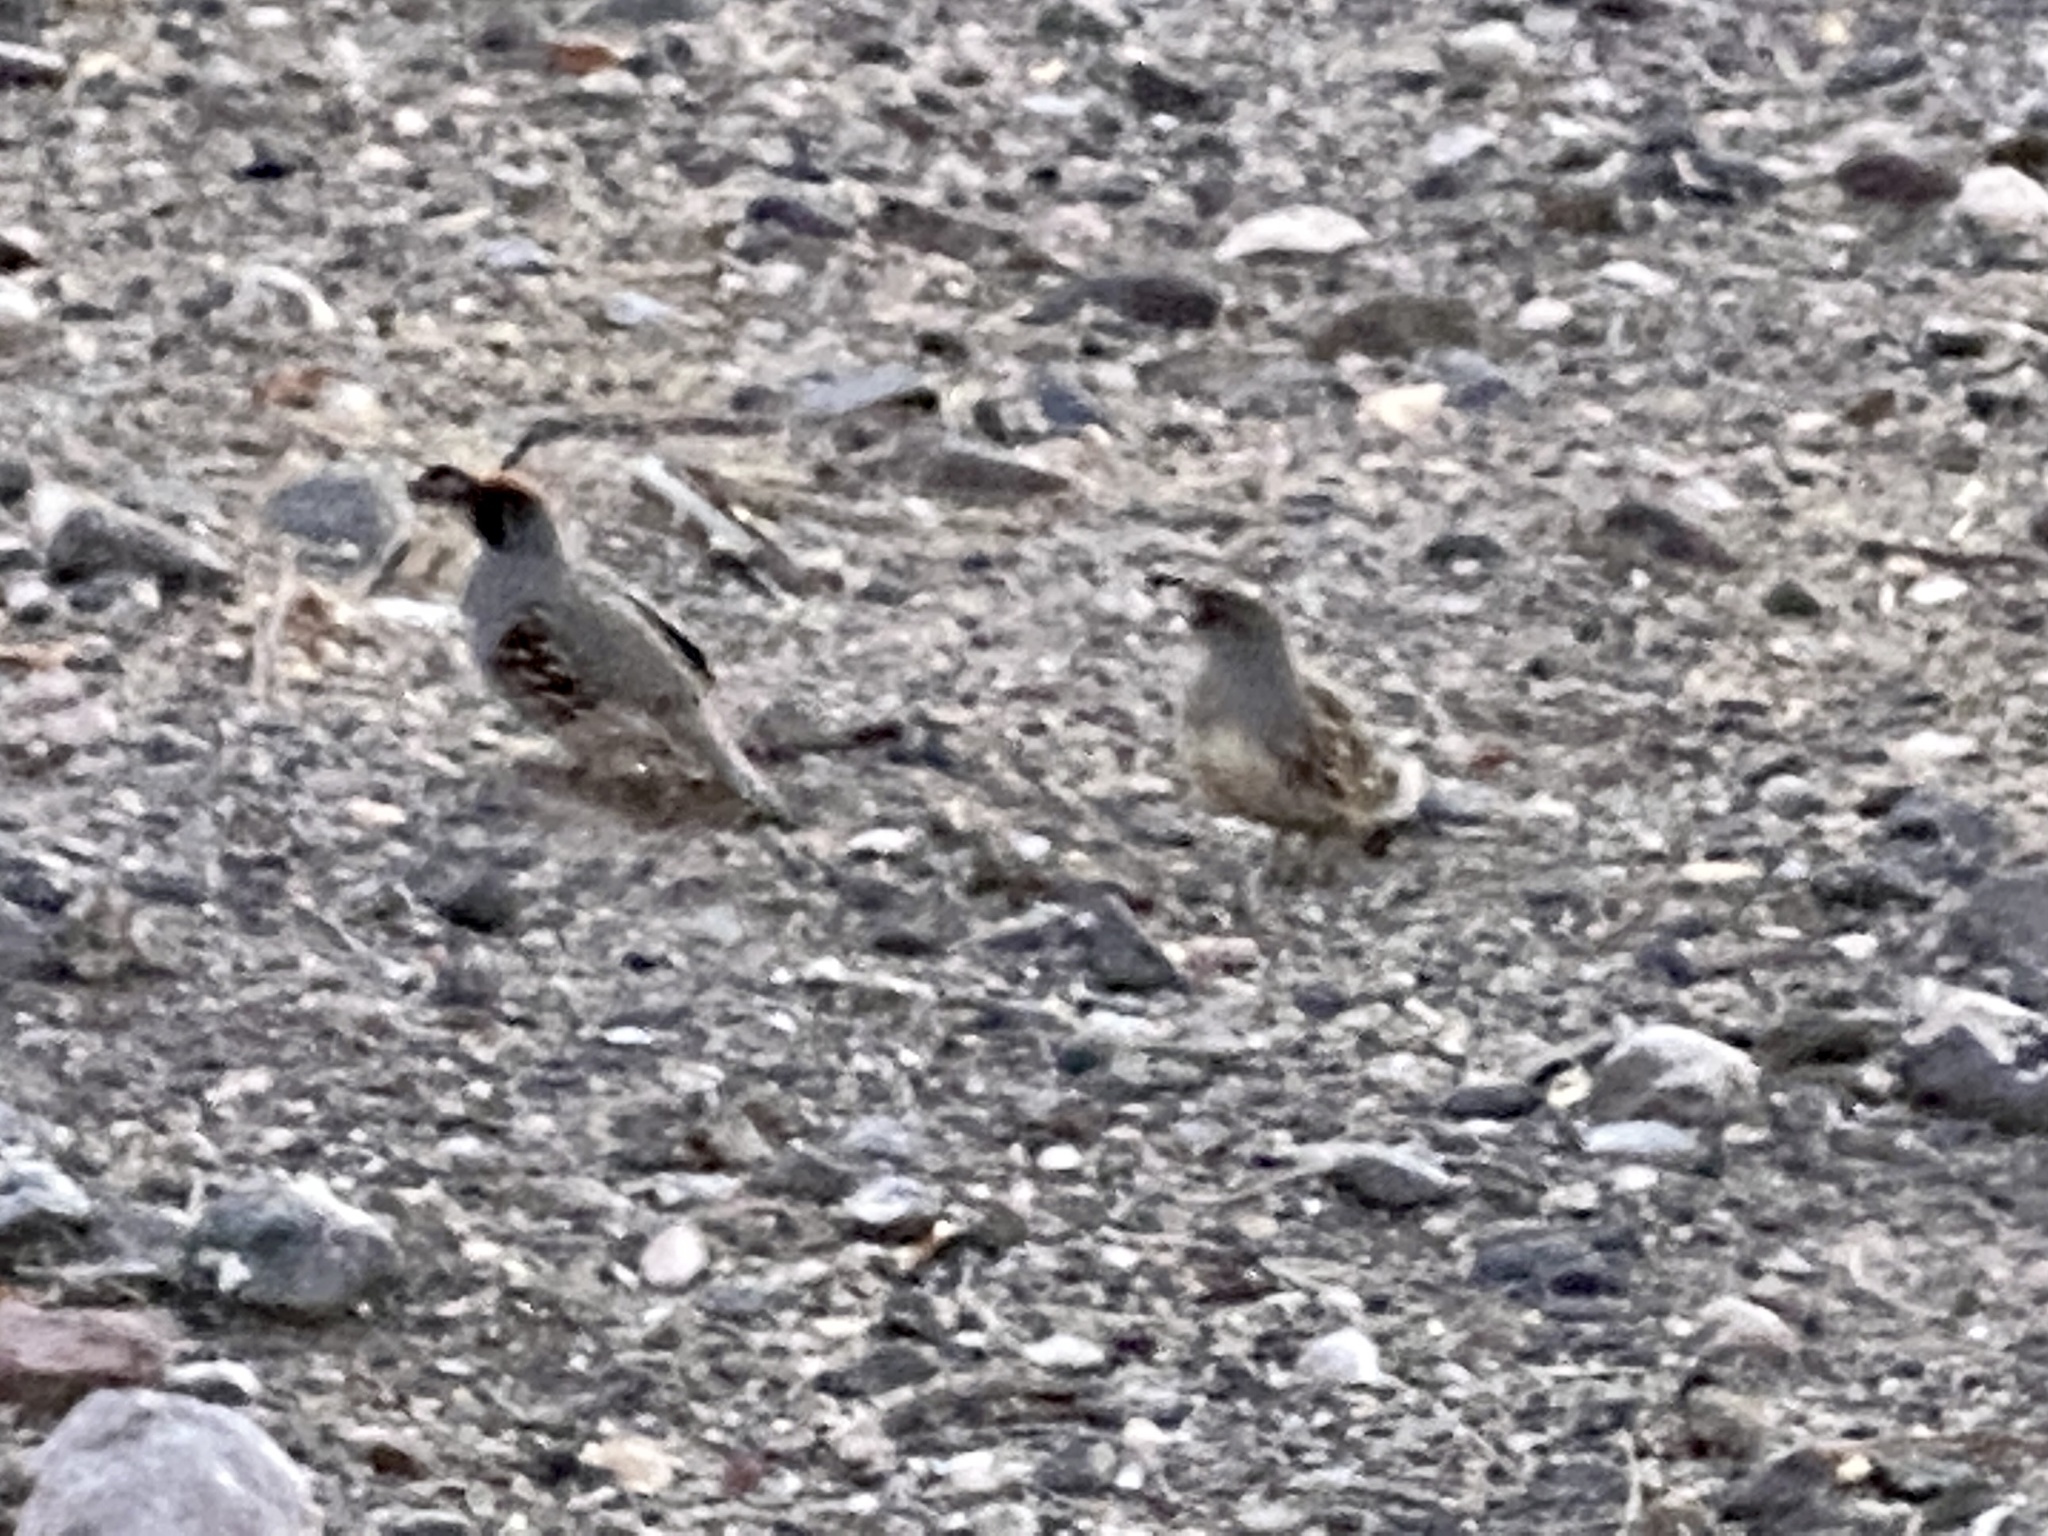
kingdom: Animalia
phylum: Chordata
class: Aves
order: Galliformes
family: Odontophoridae
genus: Callipepla
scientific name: Callipepla gambelii
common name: Gambel's quail
